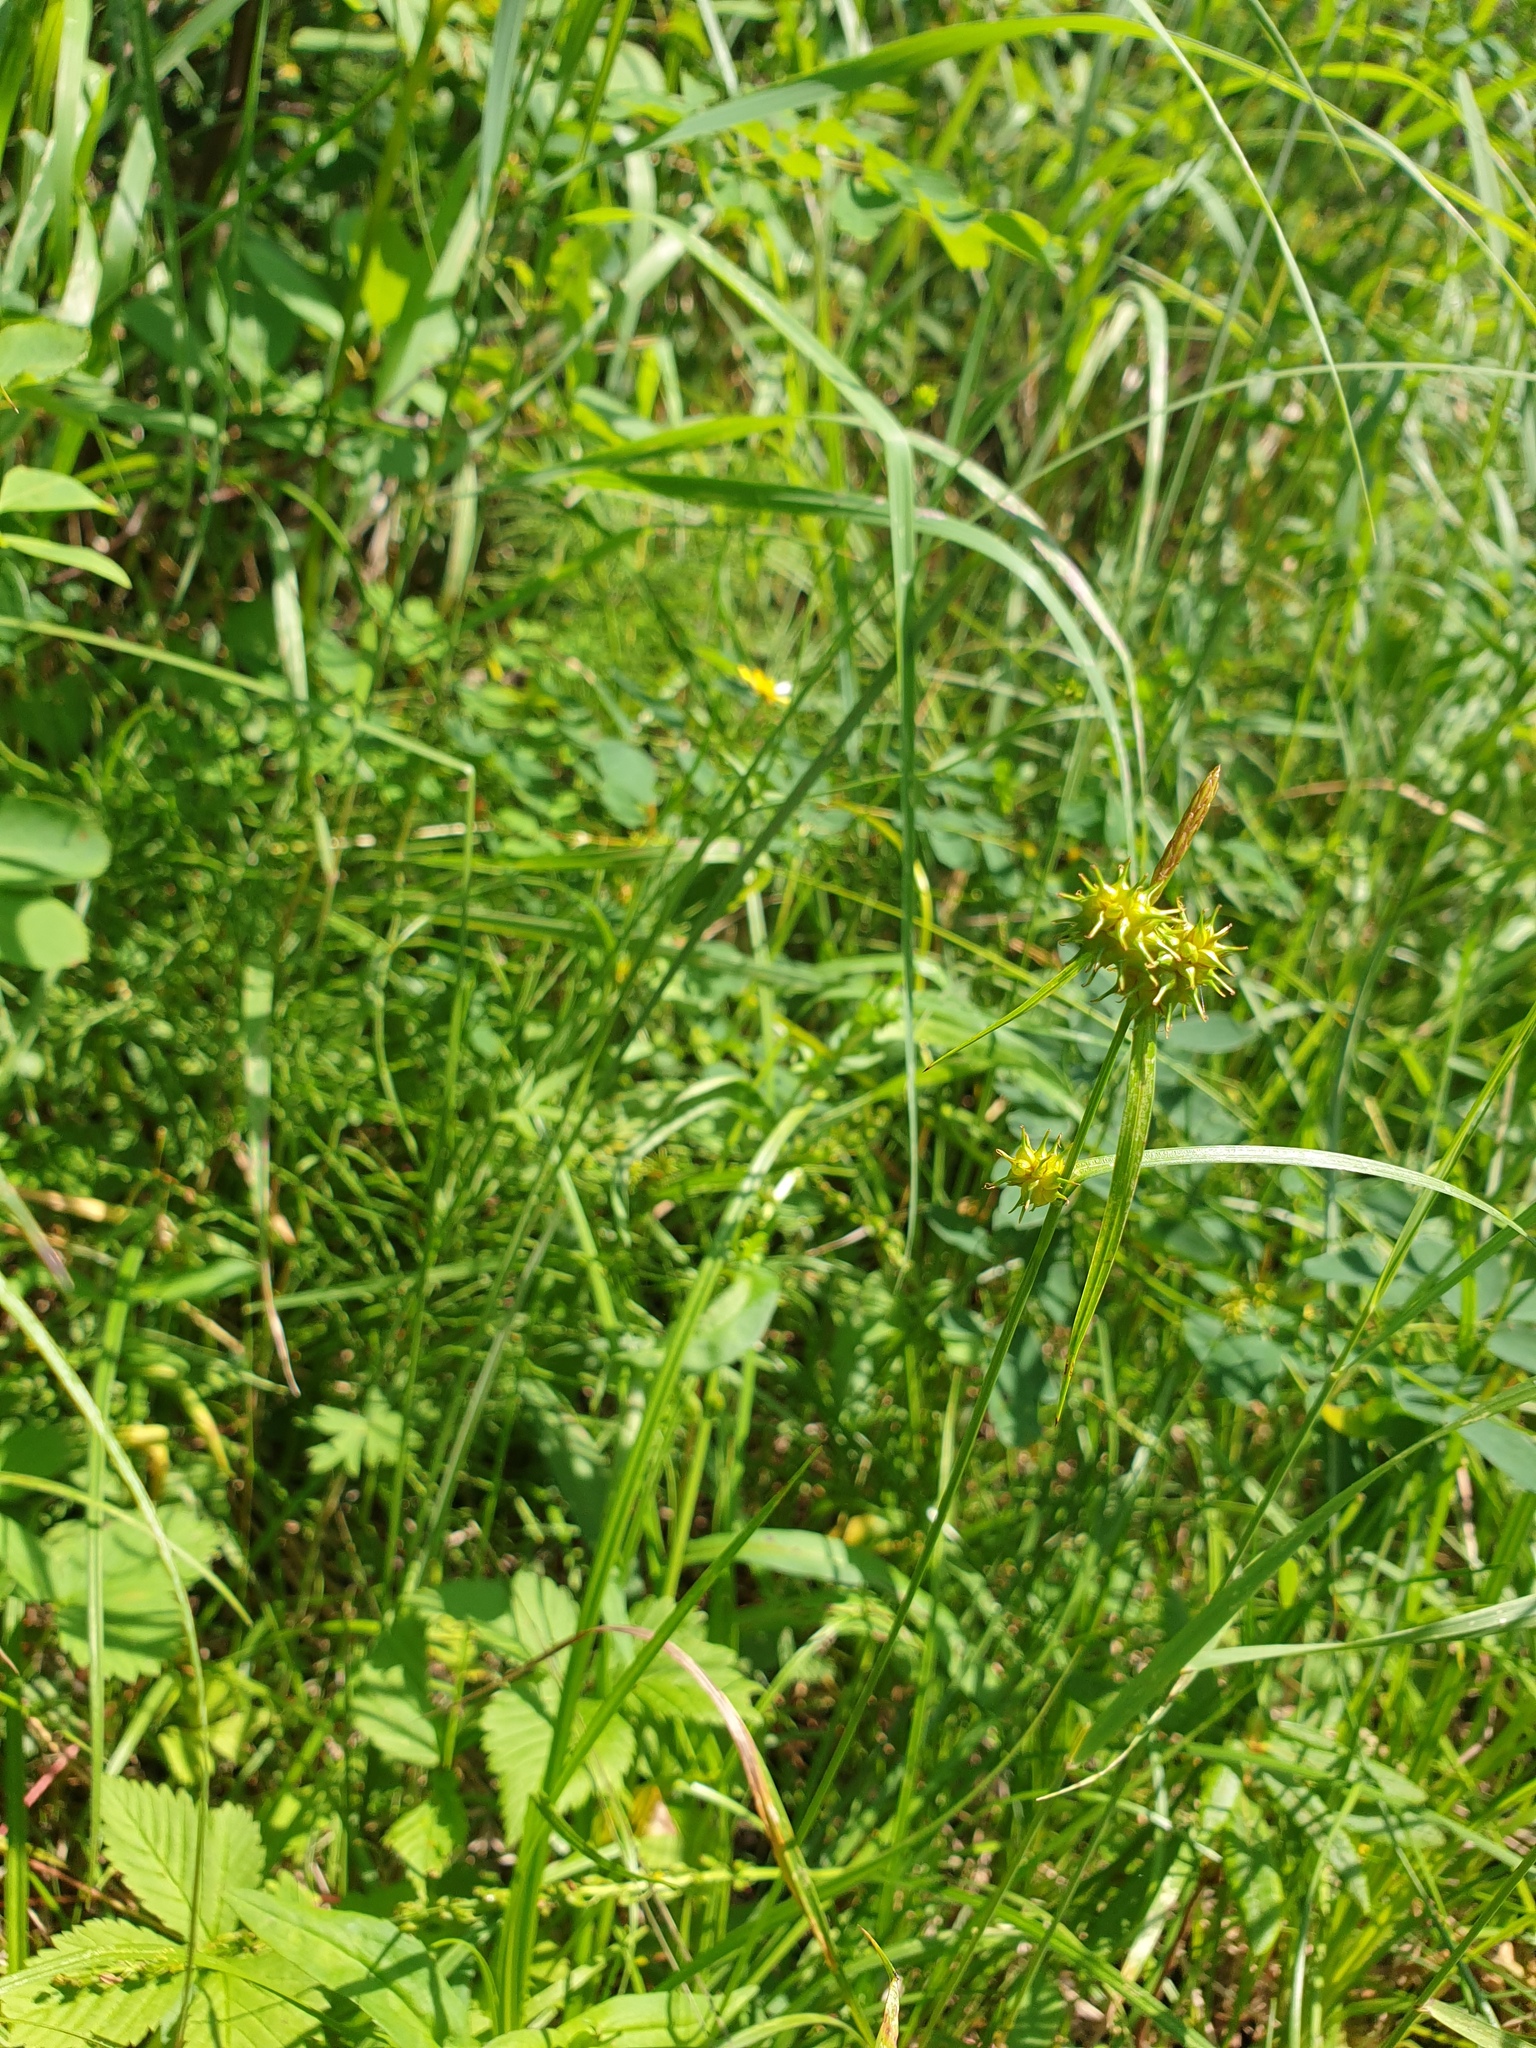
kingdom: Plantae
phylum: Tracheophyta
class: Liliopsida
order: Poales
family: Cyperaceae
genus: Carex
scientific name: Carex flava
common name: Large yellow-sedge
